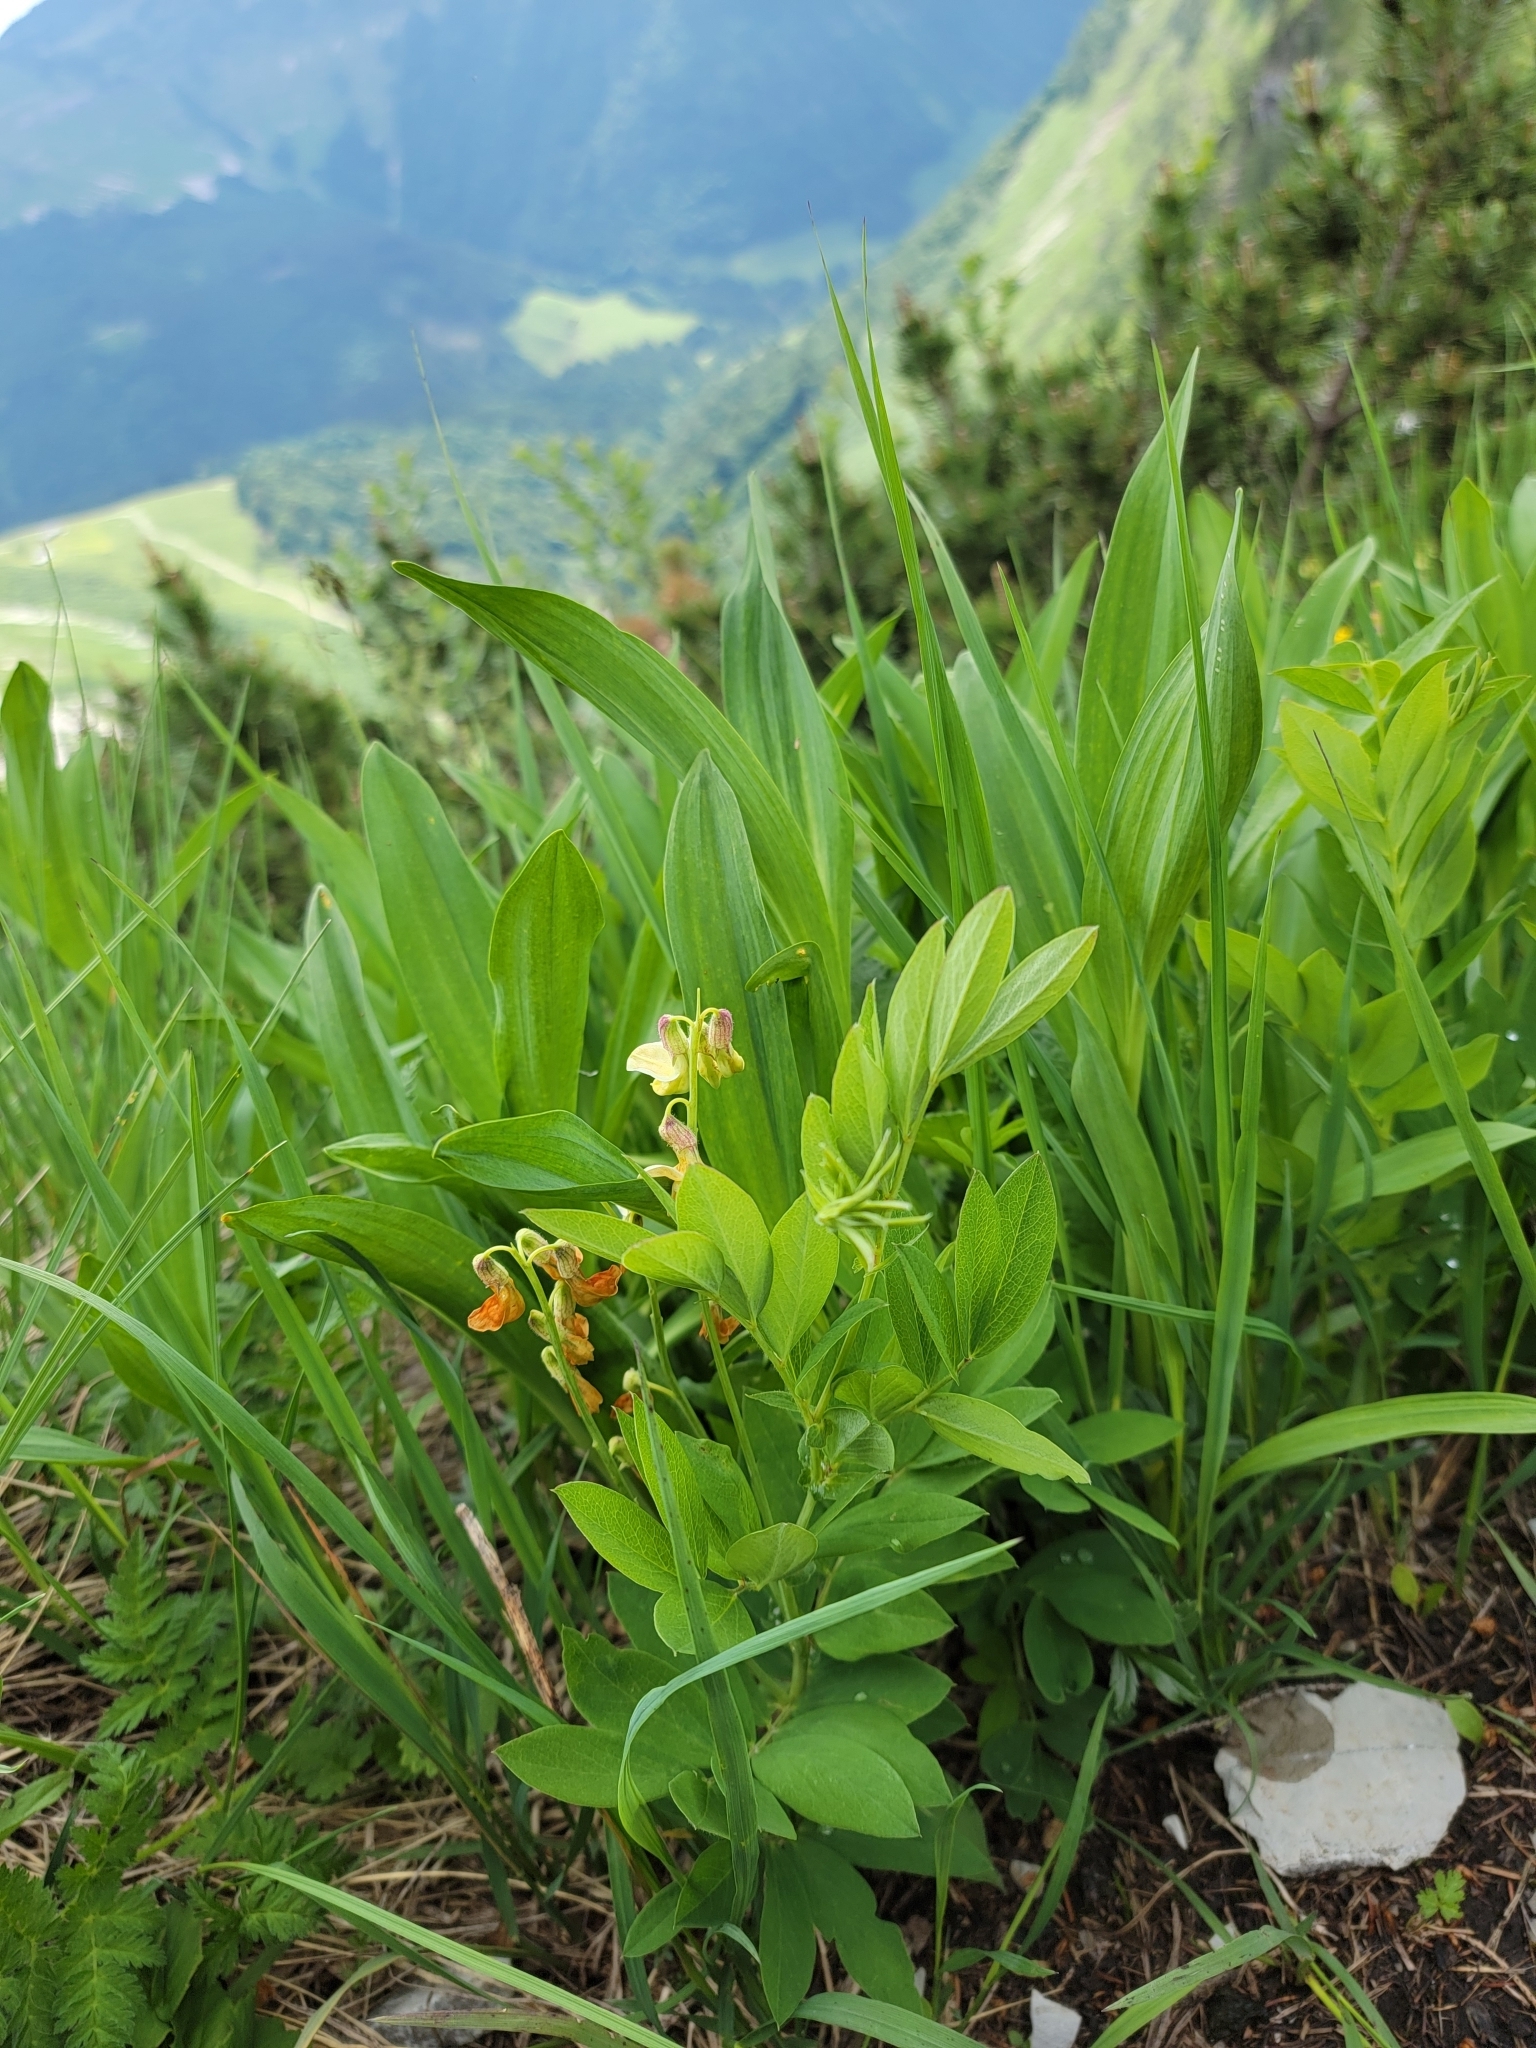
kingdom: Plantae
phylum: Tracheophyta
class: Magnoliopsida
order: Fabales
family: Fabaceae
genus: Lathyrus
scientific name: Lathyrus laevigatus
